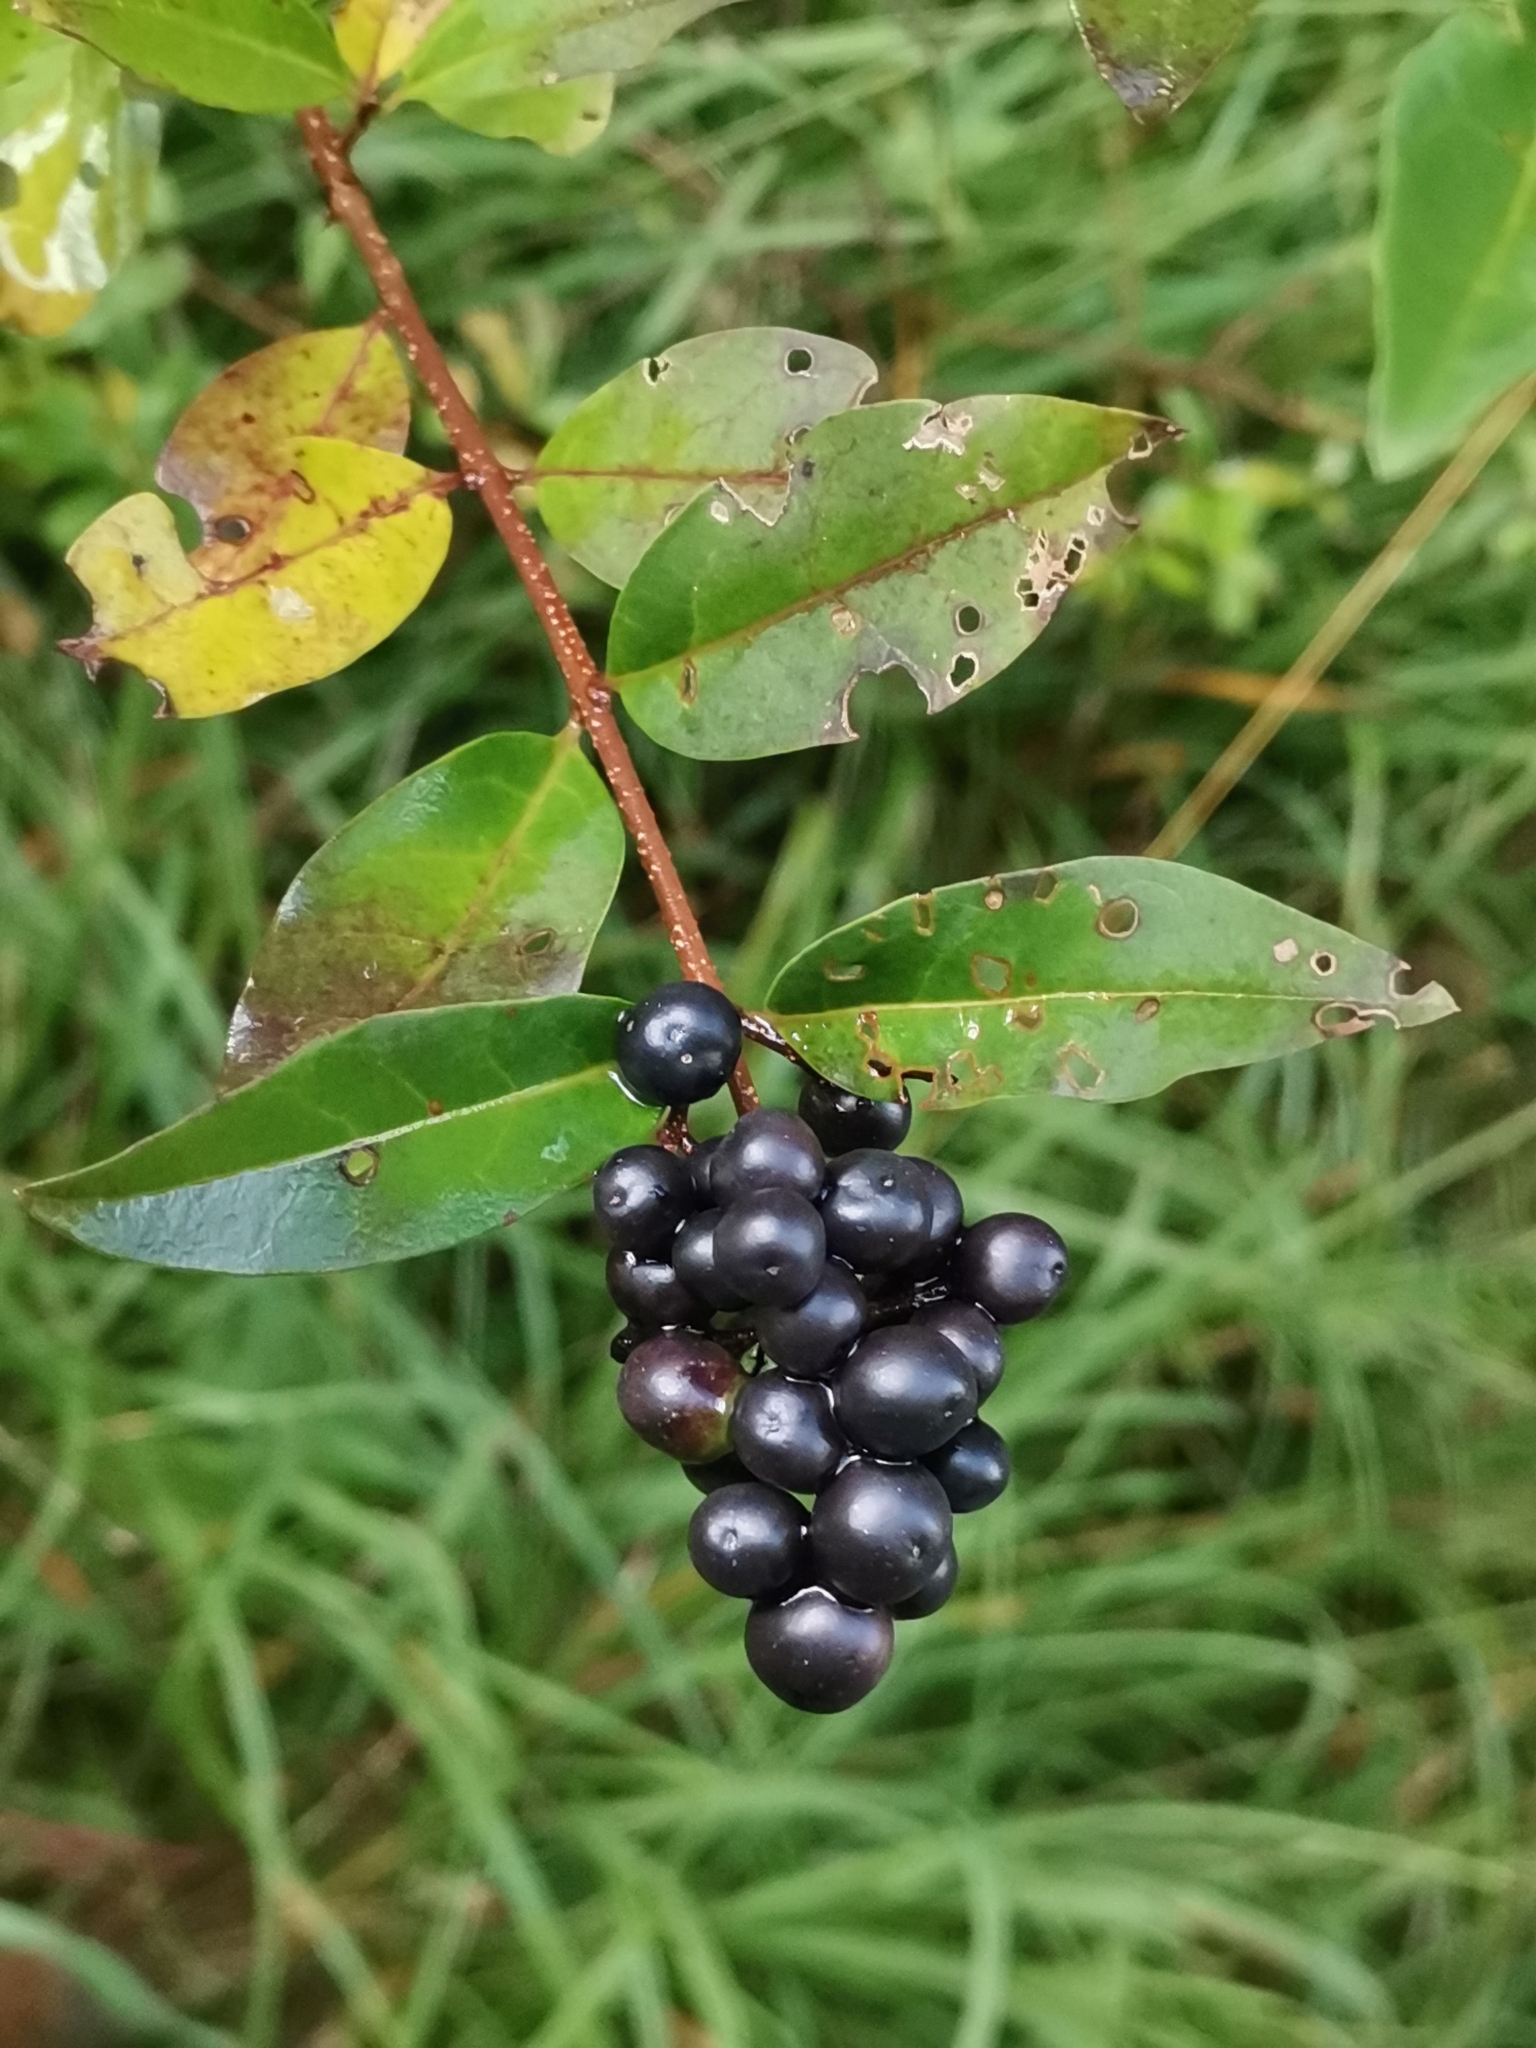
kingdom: Plantae
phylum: Tracheophyta
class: Magnoliopsida
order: Lamiales
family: Oleaceae
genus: Ligustrum
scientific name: Ligustrum vulgare
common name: Wild privet
